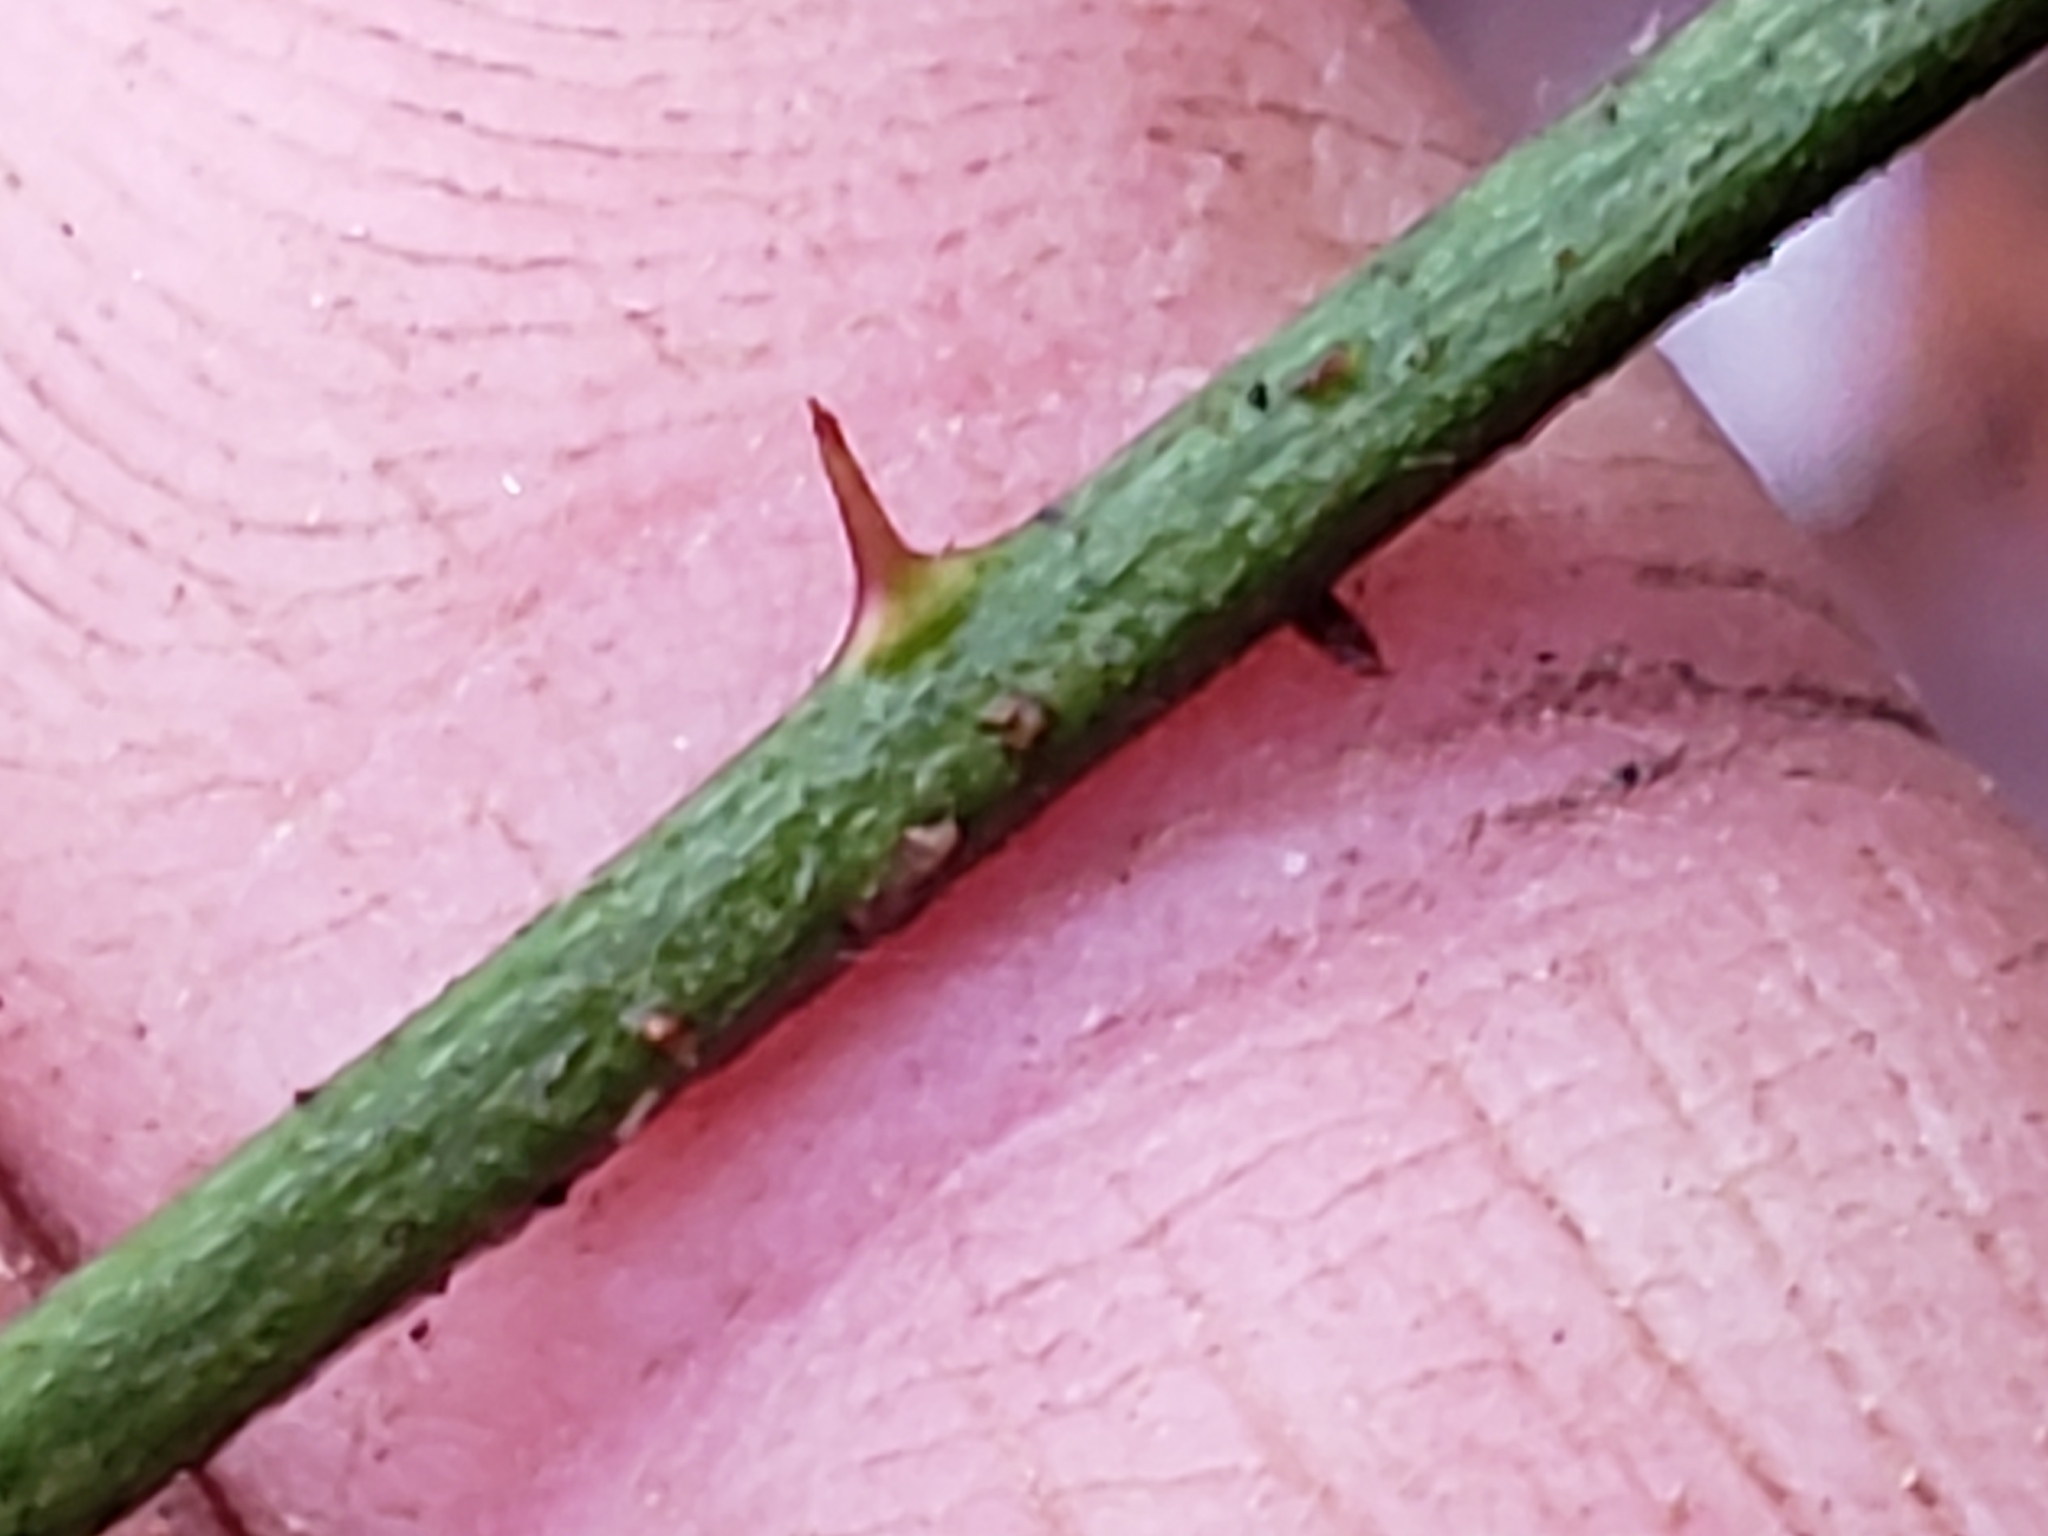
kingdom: Animalia
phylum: Arthropoda
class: Insecta
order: Hymenoptera
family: Cynipidae
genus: Diastrophus
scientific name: Diastrophus
